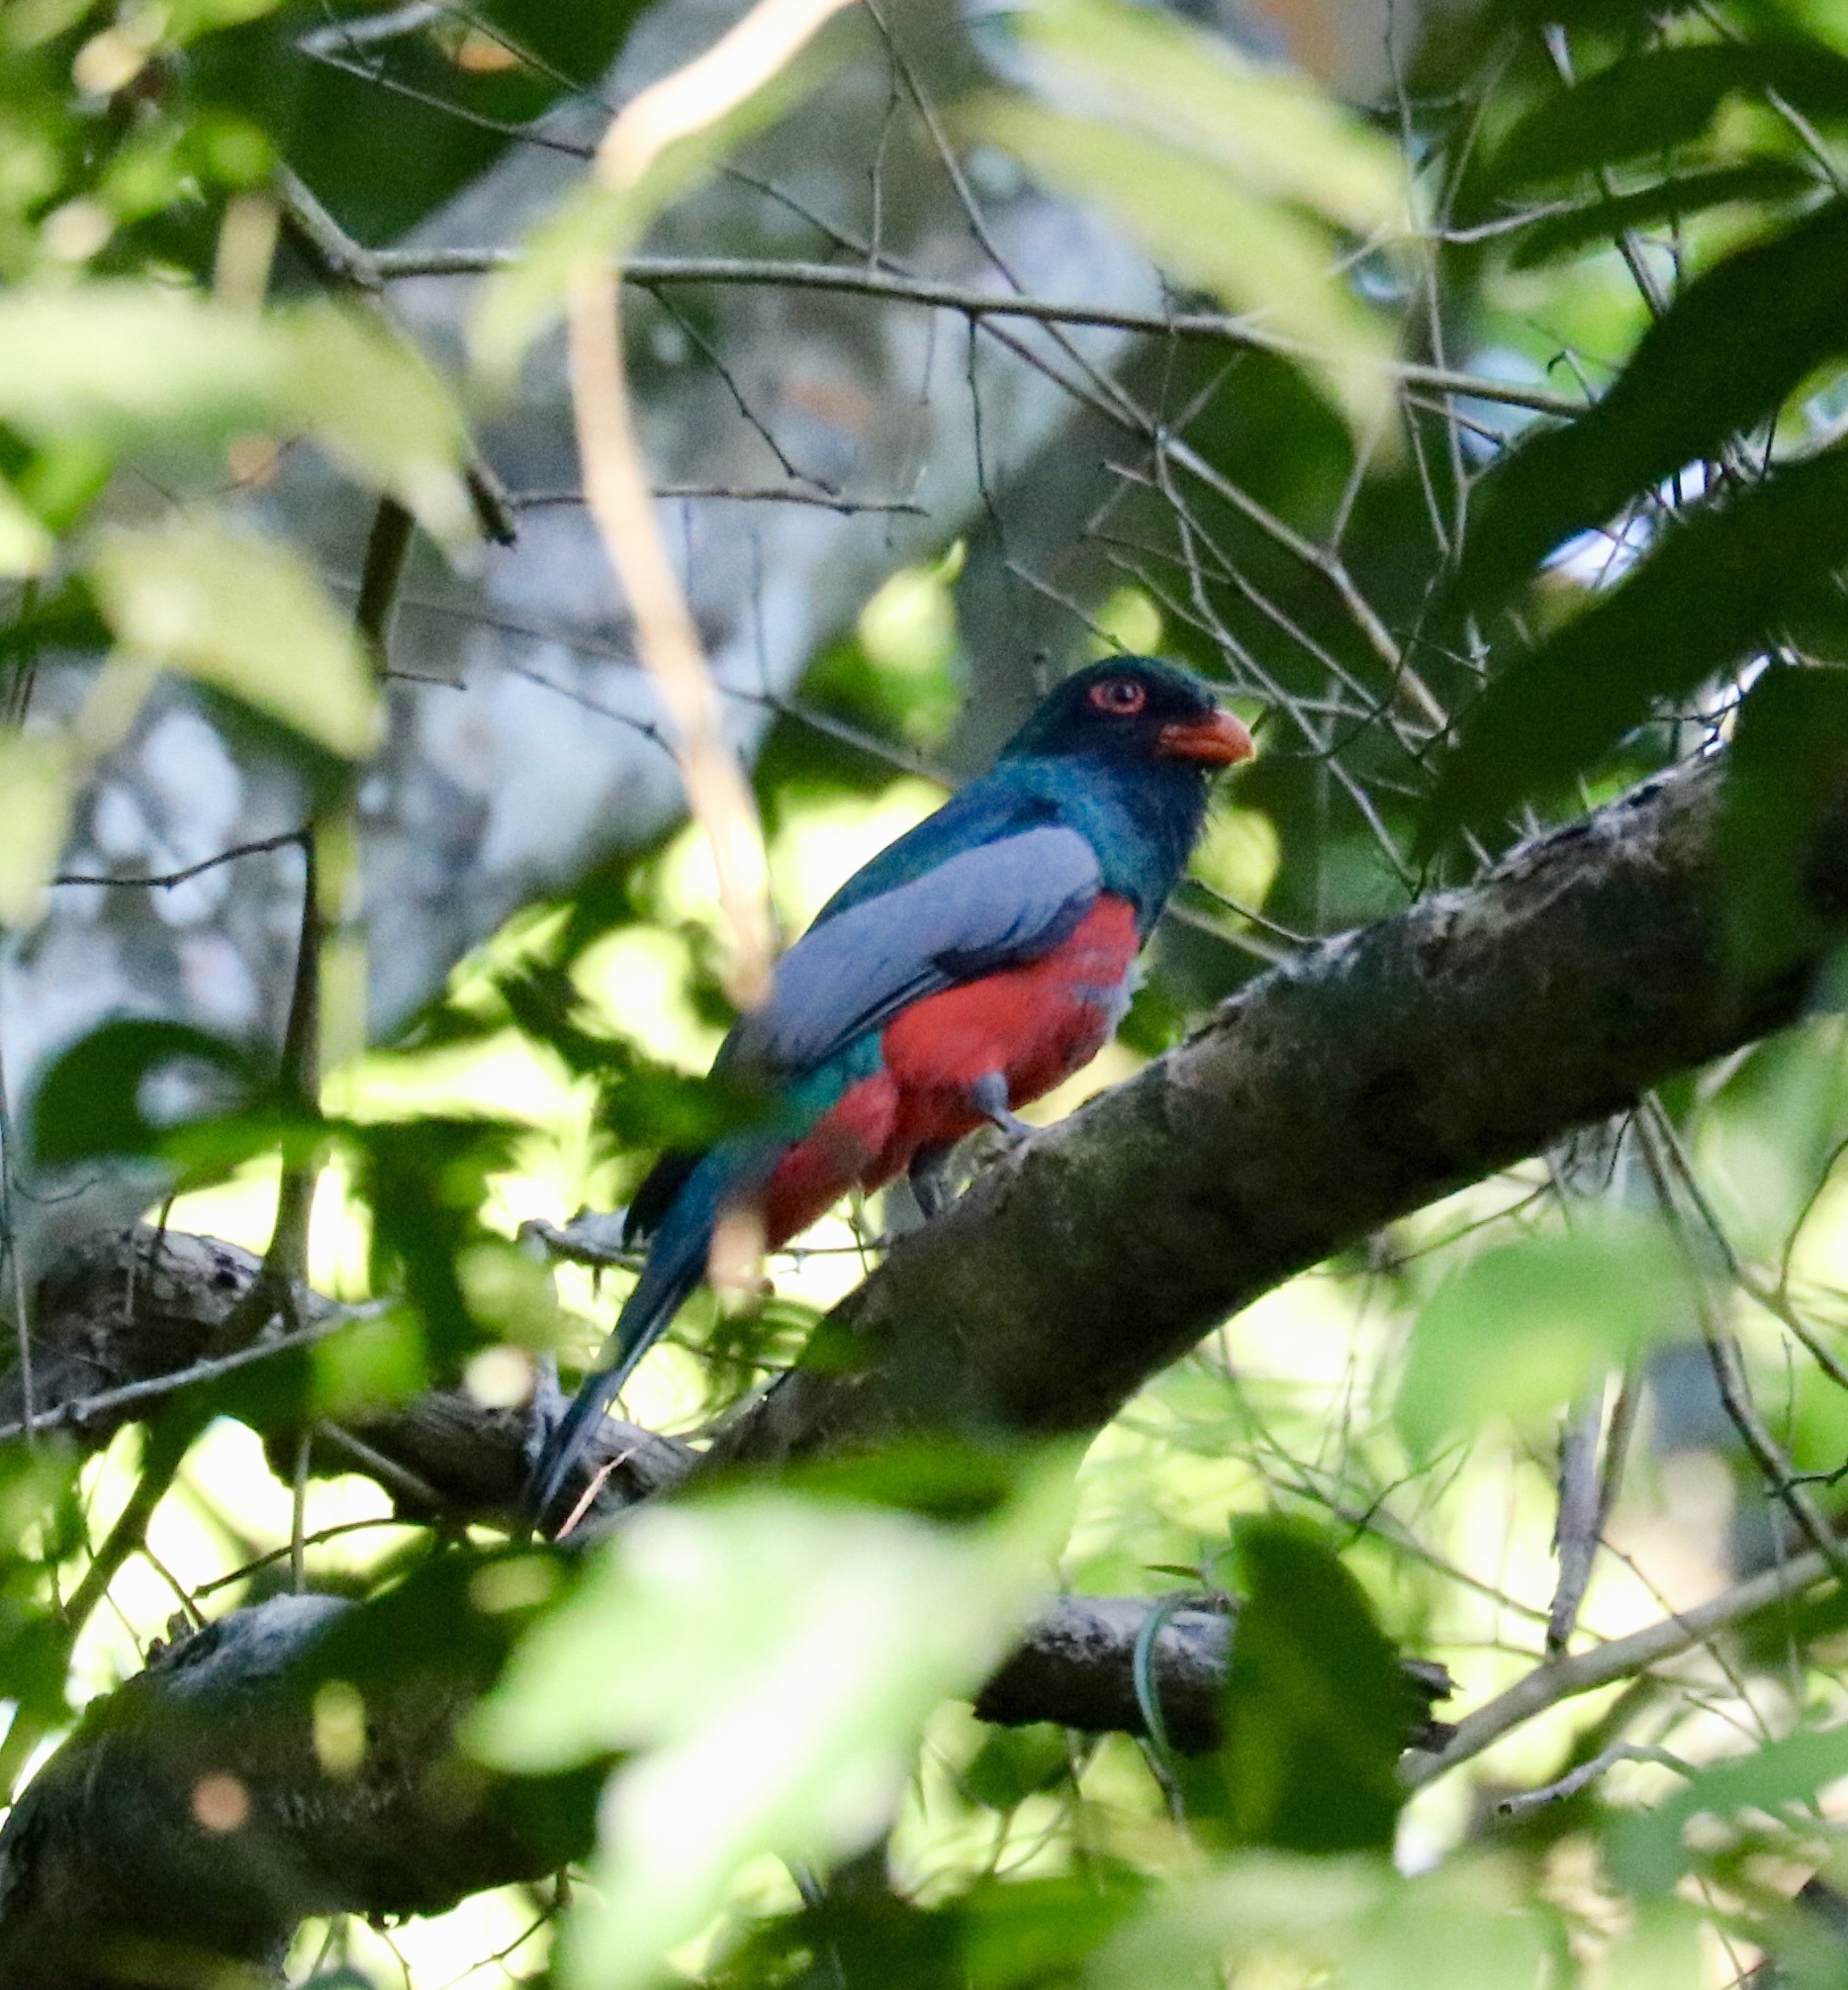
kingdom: Animalia
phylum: Chordata
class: Aves
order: Trogoniformes
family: Trogonidae
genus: Trogon
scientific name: Trogon massena
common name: Slaty-tailed trogon
